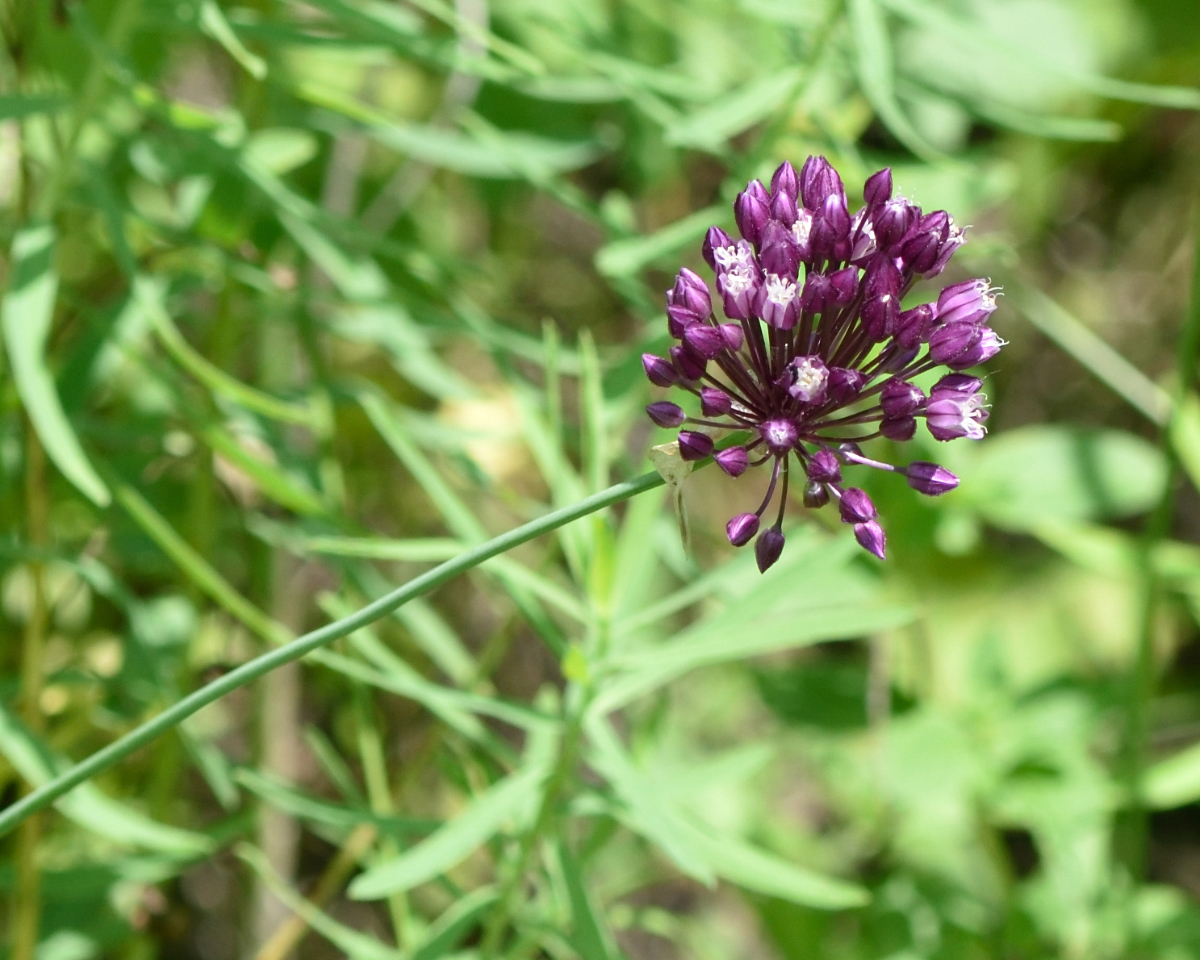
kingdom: Plantae
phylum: Tracheophyta
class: Liliopsida
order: Asparagales
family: Amaryllidaceae
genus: Allium
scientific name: Allium rotundum
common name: Sand leek
